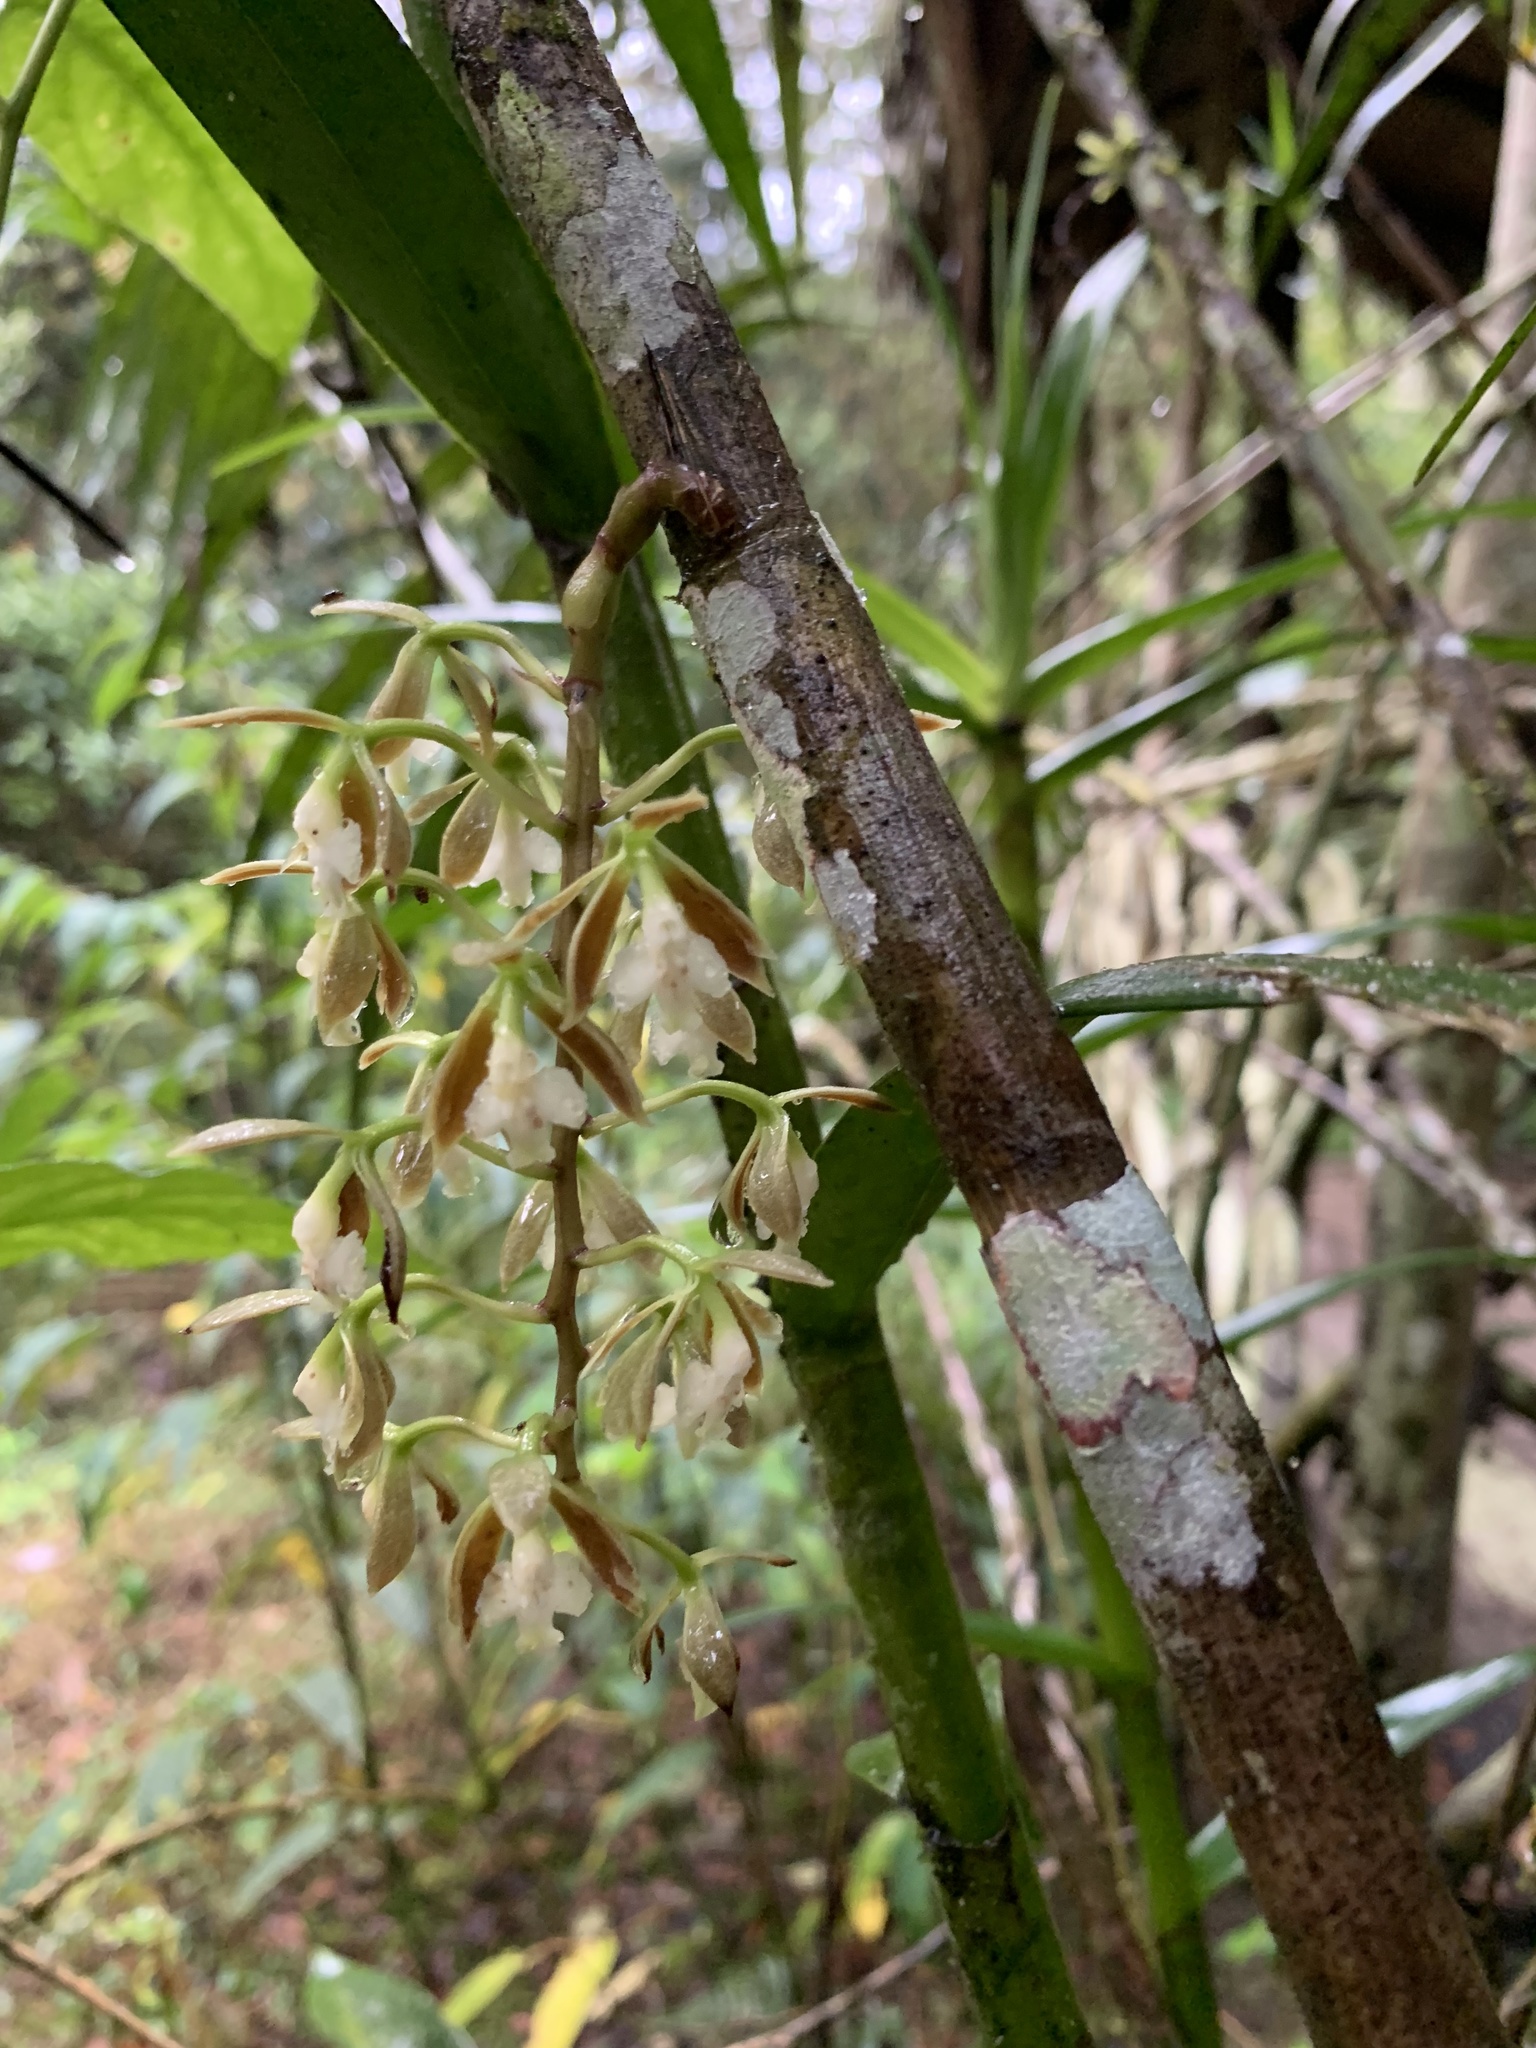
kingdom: Plantae
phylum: Tracheophyta
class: Liliopsida
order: Asparagales
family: Orchidaceae
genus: Epidendrum
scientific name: Epidendrum bambusiforme
